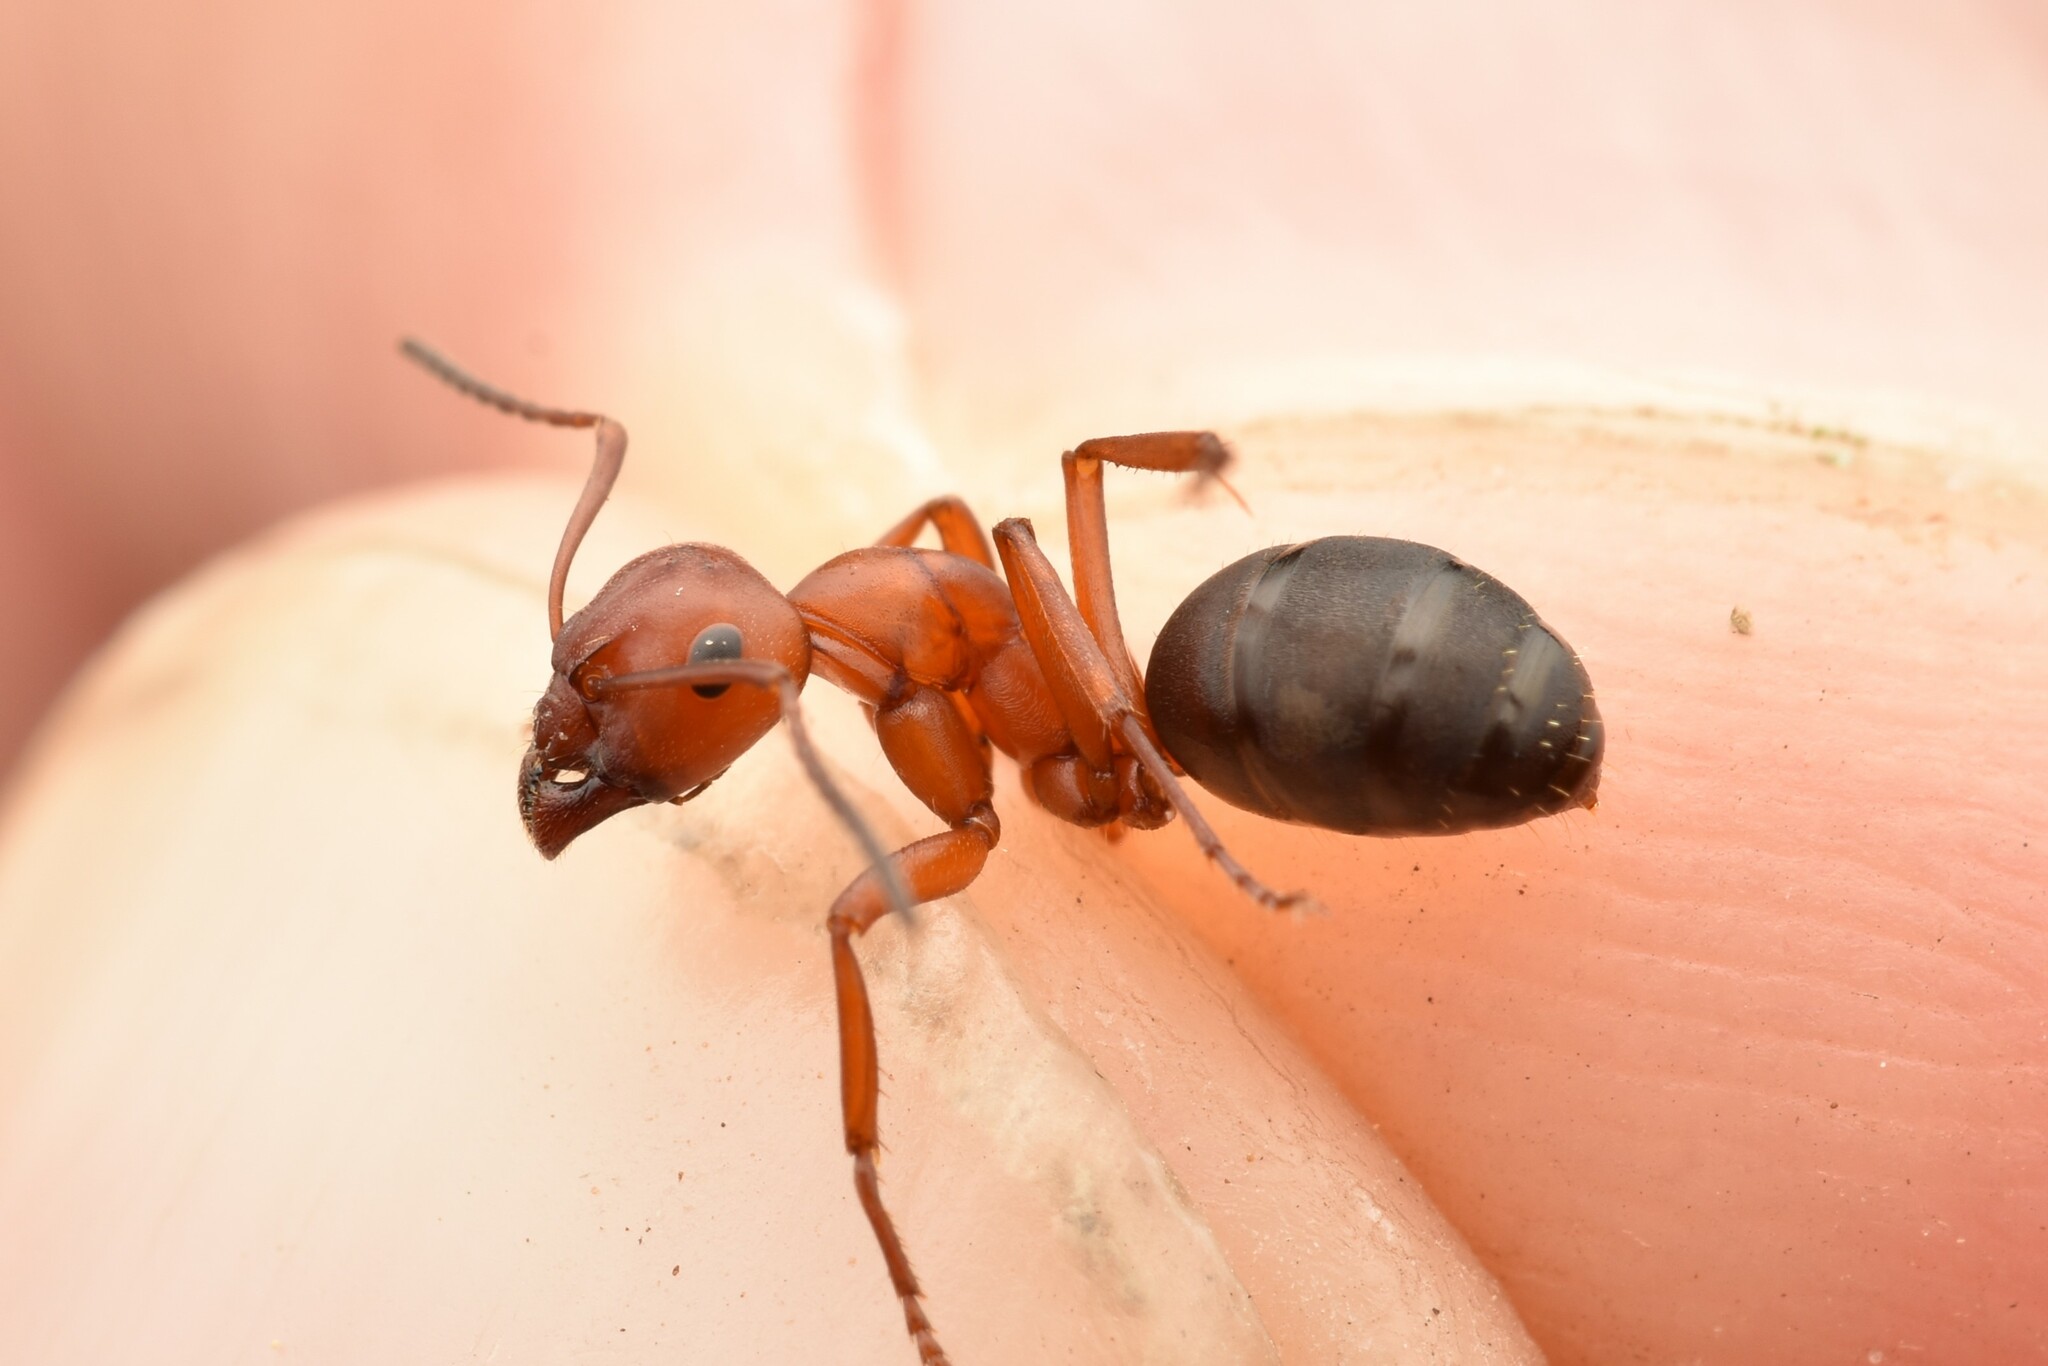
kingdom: Animalia
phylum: Arthropoda
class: Insecta
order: Hymenoptera
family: Formicidae
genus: Formica
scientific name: Formica subintegra
